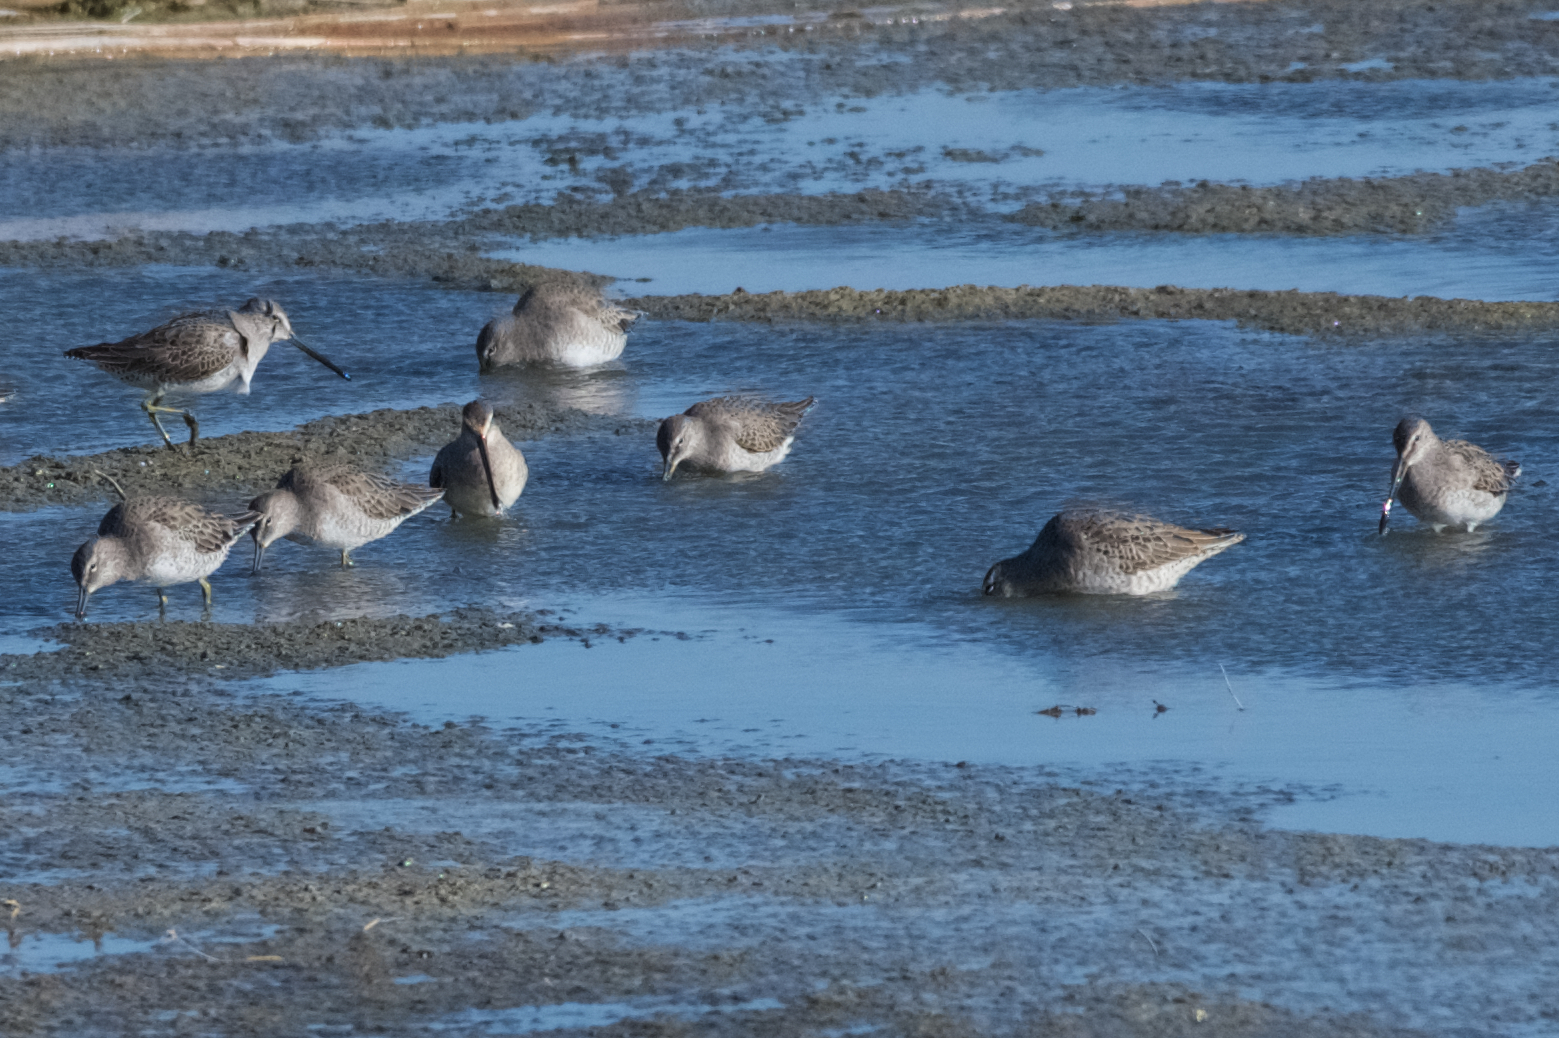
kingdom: Animalia
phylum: Chordata
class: Aves
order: Charadriiformes
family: Scolopacidae
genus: Limnodromus
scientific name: Limnodromus scolopaceus
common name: Long-billed dowitcher
